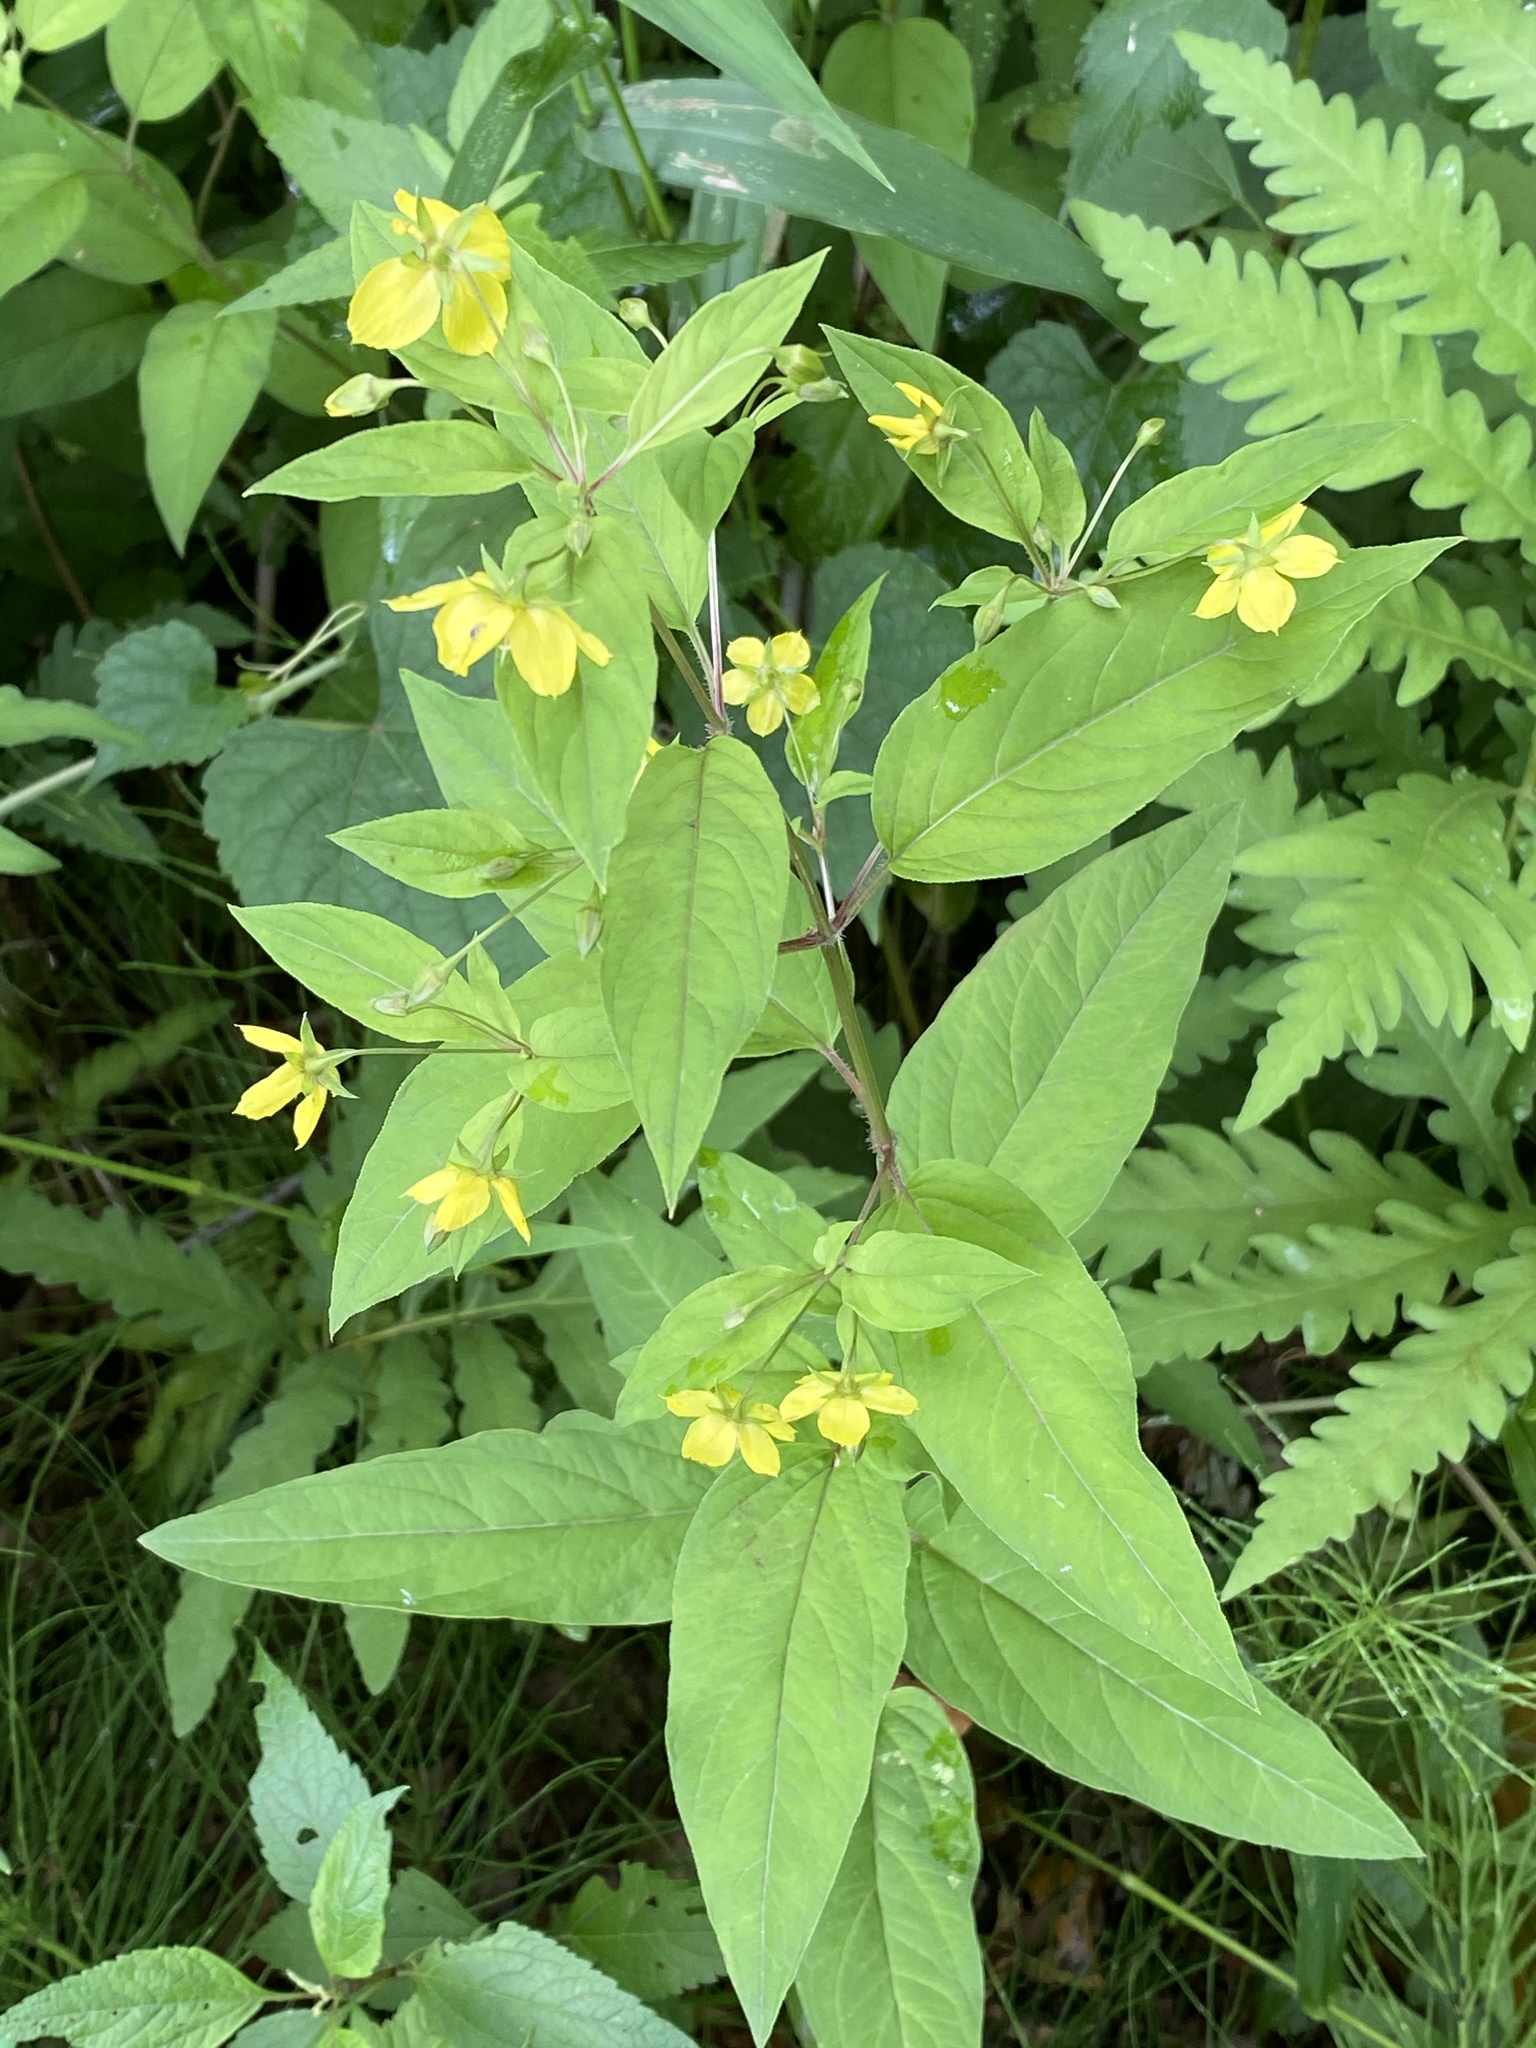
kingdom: Plantae
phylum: Tracheophyta
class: Magnoliopsida
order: Ericales
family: Primulaceae
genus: Lysimachia
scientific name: Lysimachia ciliata
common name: Fringed loosestrife
